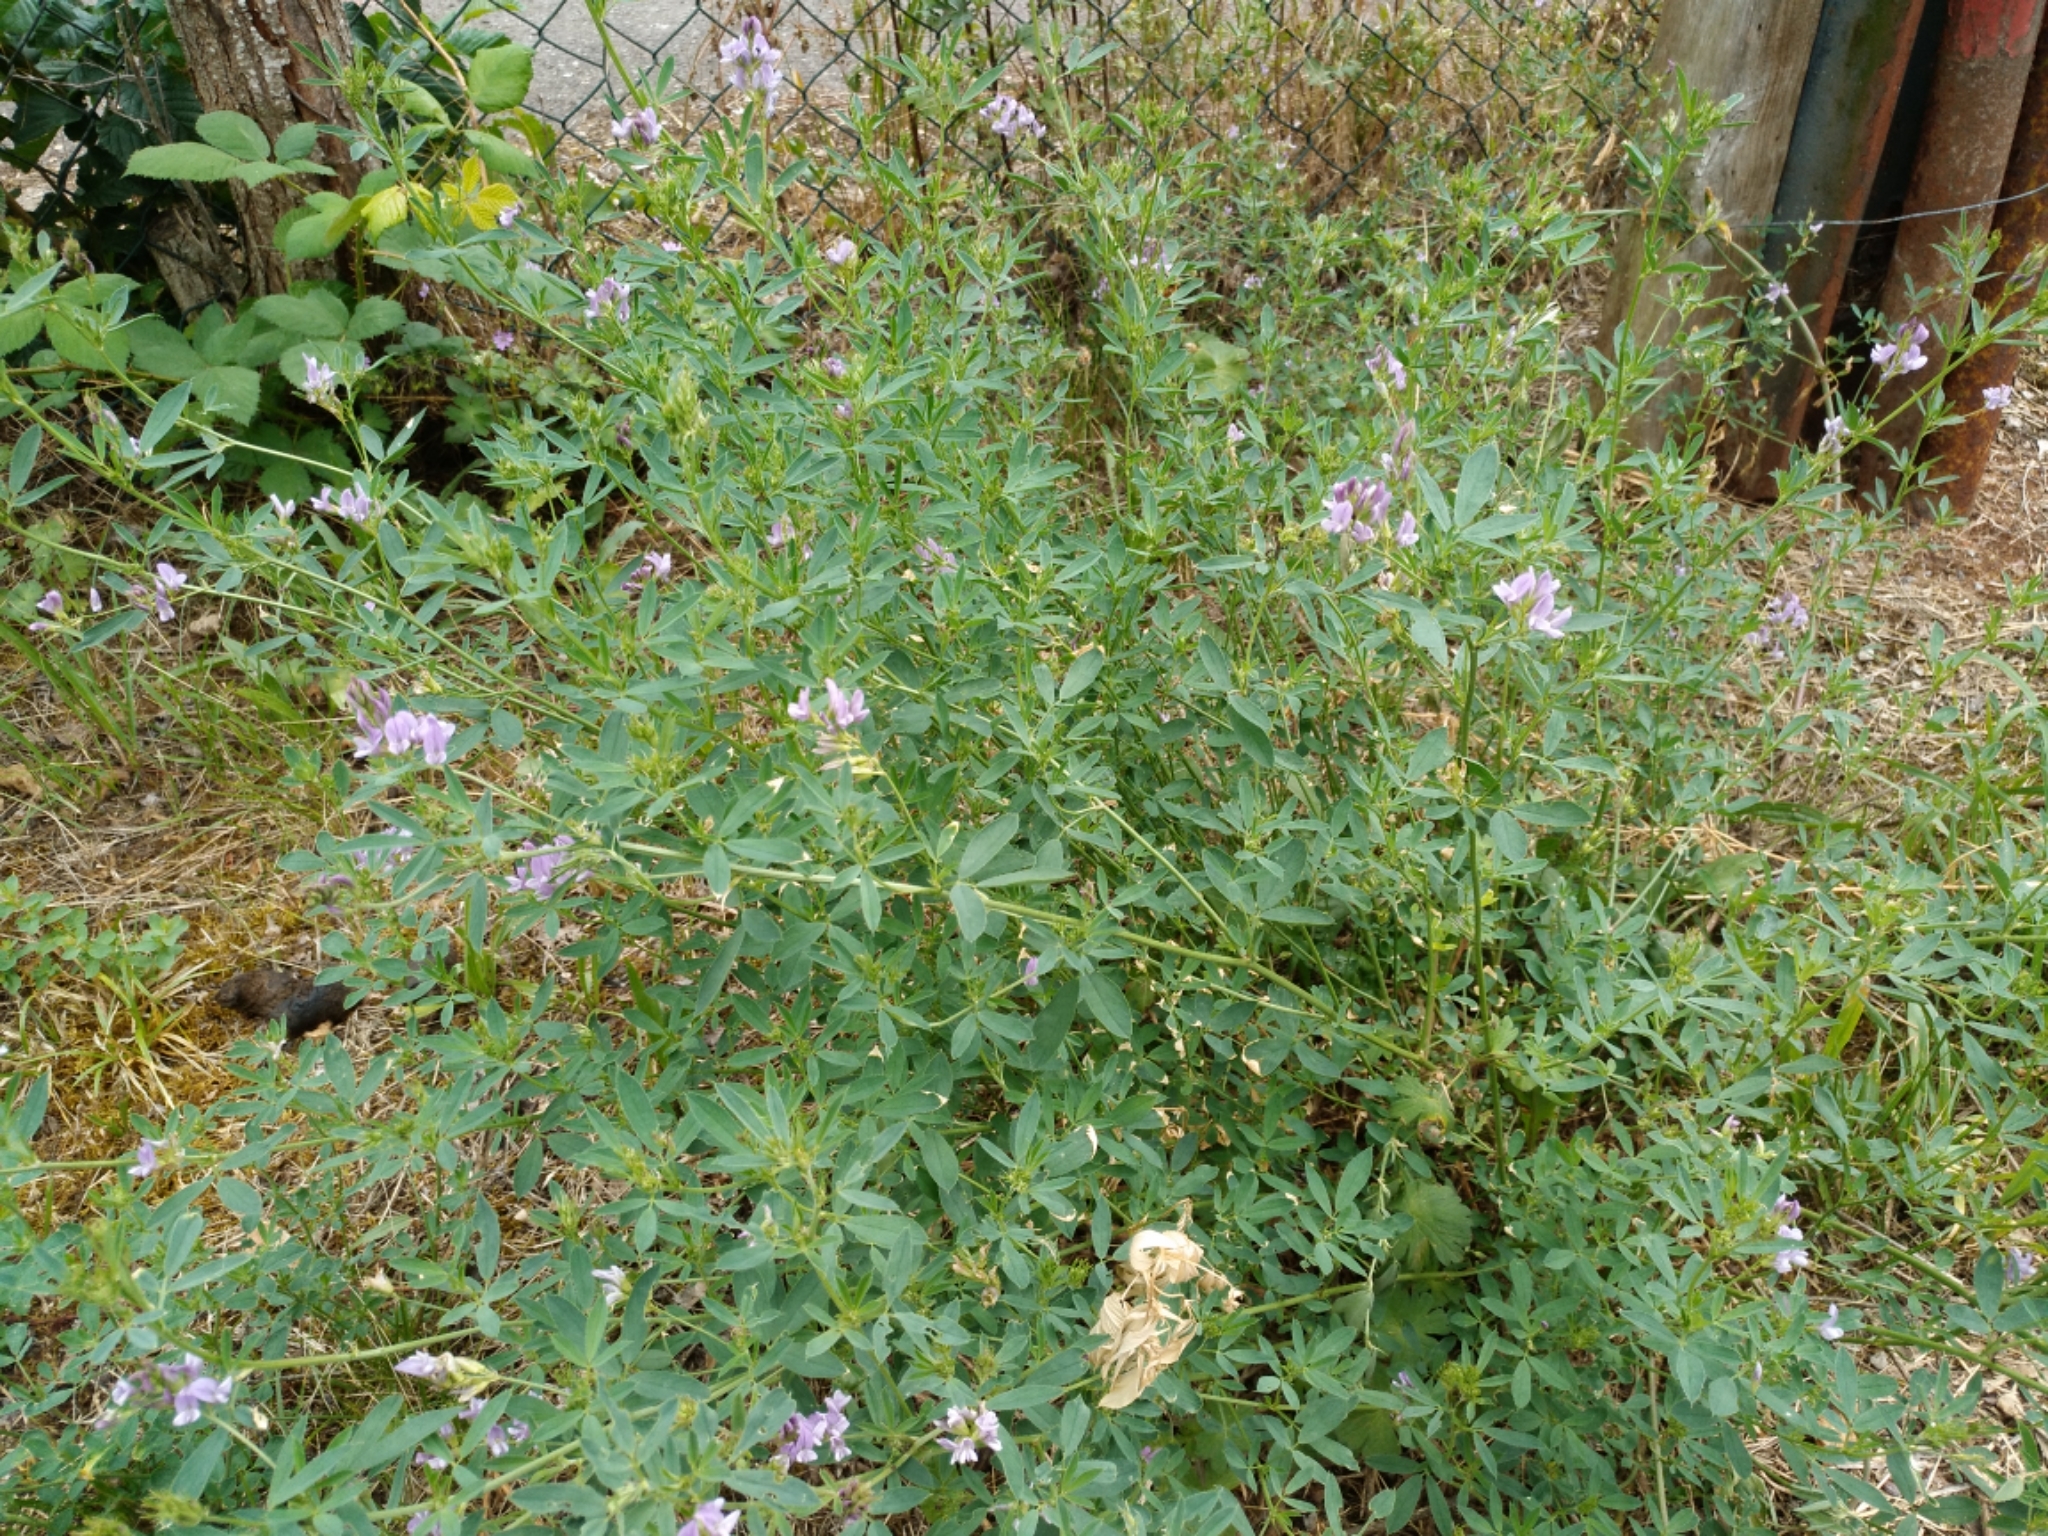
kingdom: Plantae
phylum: Tracheophyta
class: Magnoliopsida
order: Fabales
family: Fabaceae
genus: Medicago
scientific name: Medicago sativa
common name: Alfalfa
